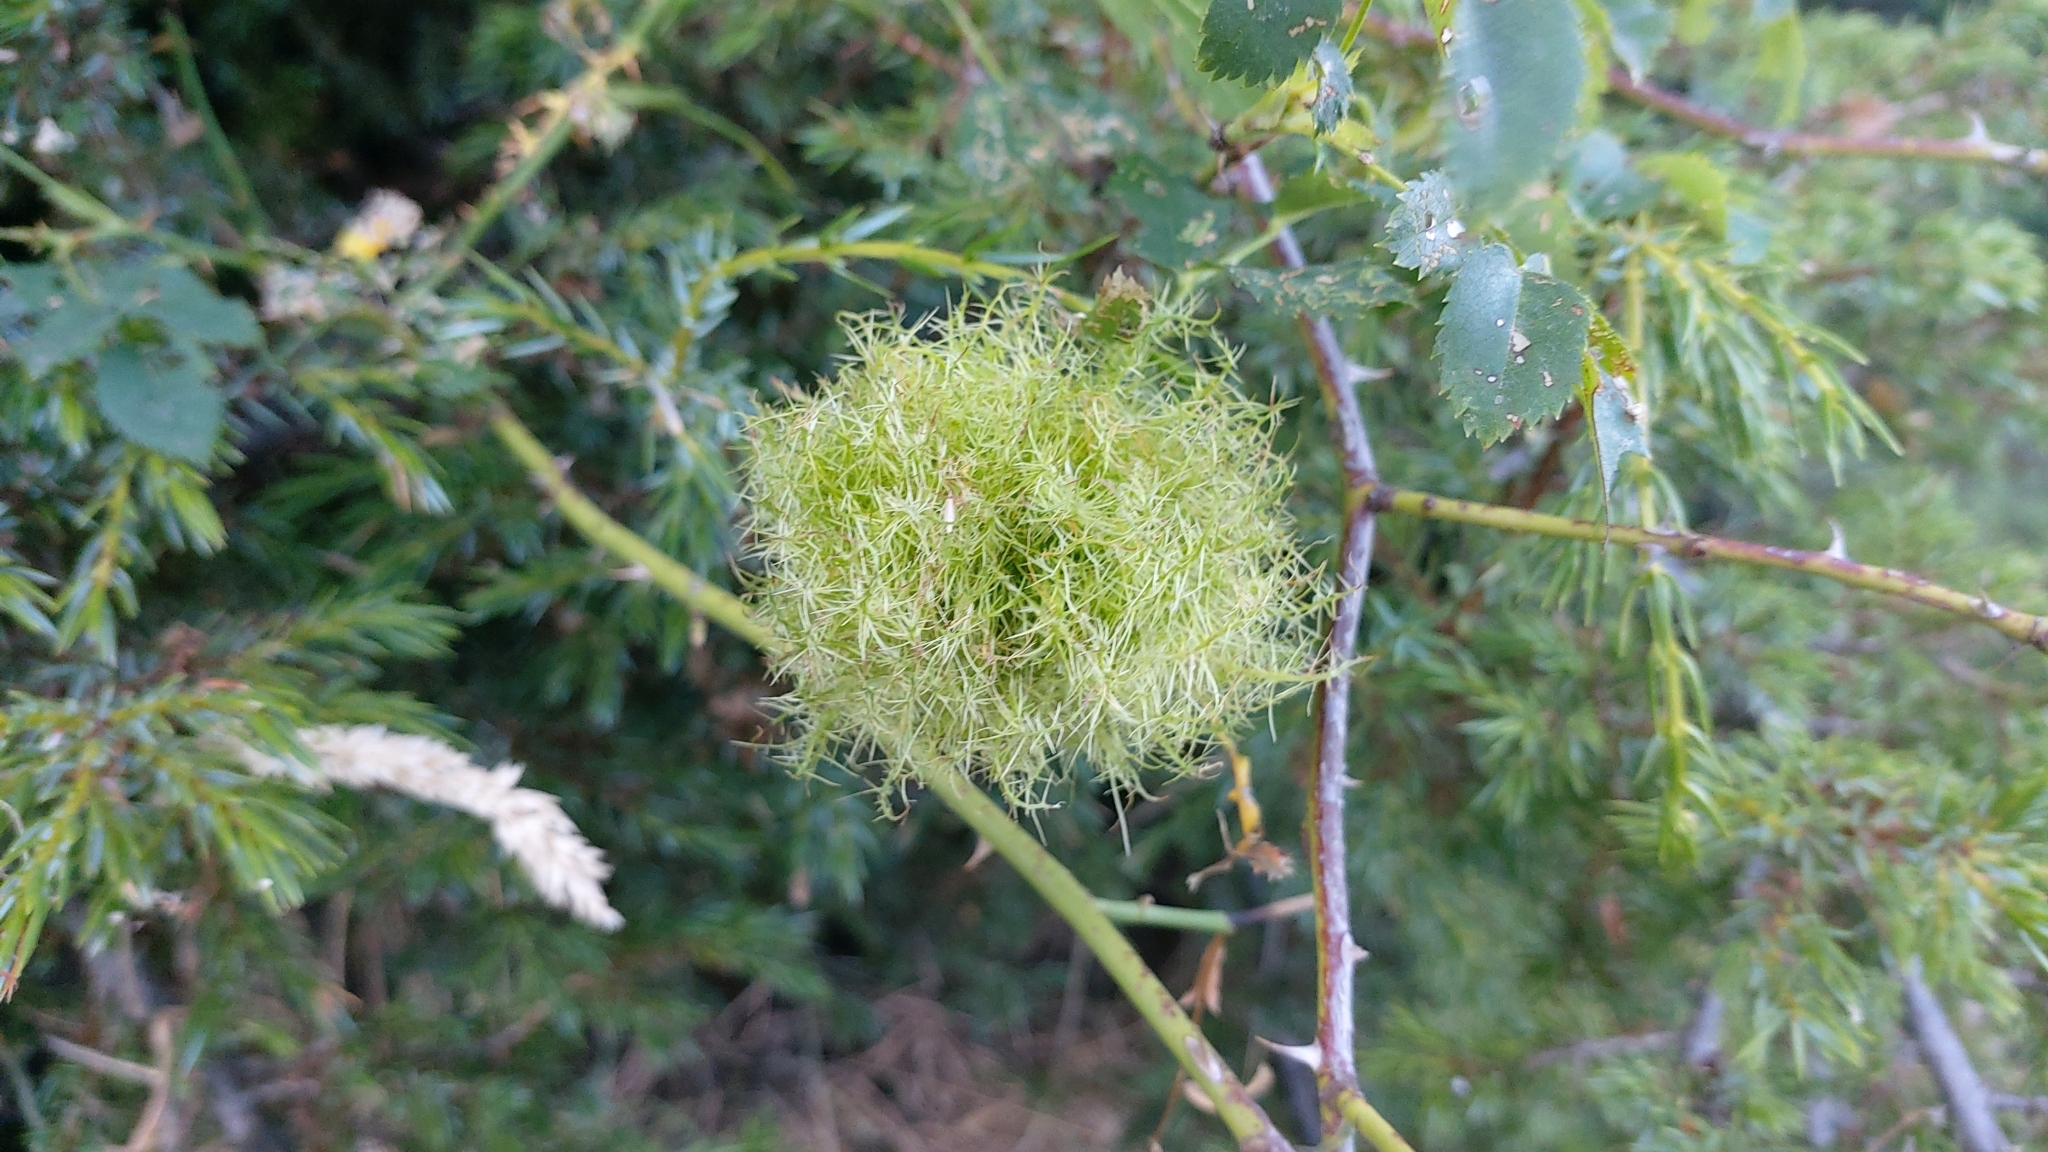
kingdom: Animalia
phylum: Arthropoda
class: Insecta
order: Hymenoptera
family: Cynipidae
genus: Diplolepis
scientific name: Diplolepis rosae
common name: Bedeguar gall
